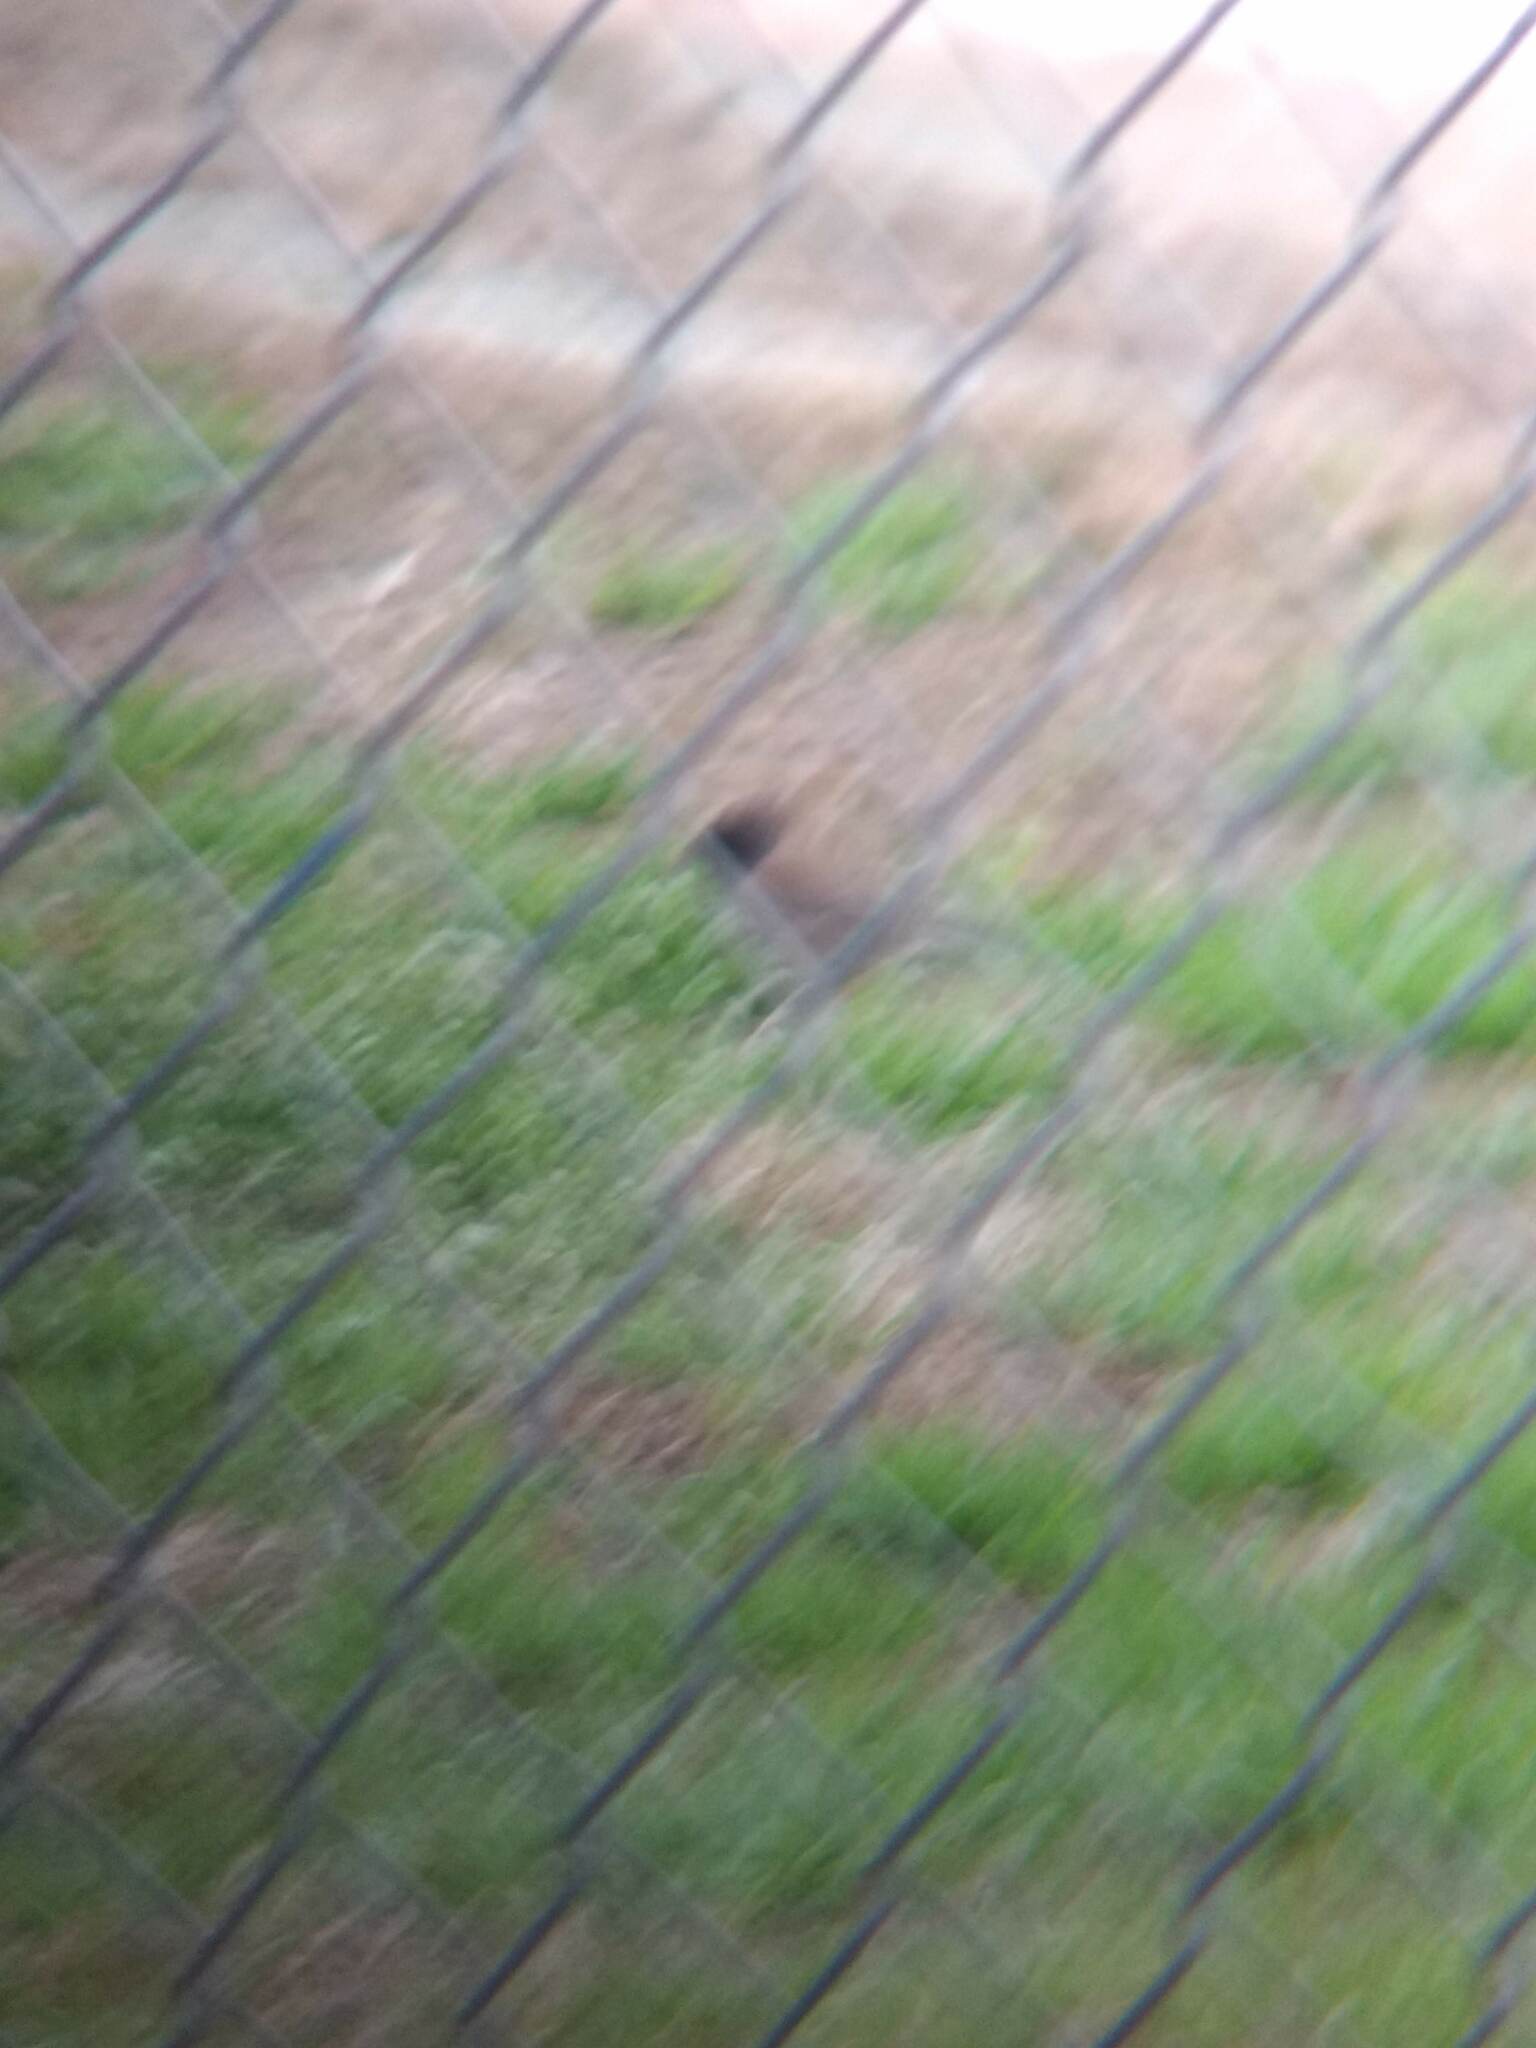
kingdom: Animalia
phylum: Chordata
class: Aves
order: Passeriformes
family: Passerellidae
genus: Junco
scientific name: Junco hyemalis
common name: Dark-eyed junco
